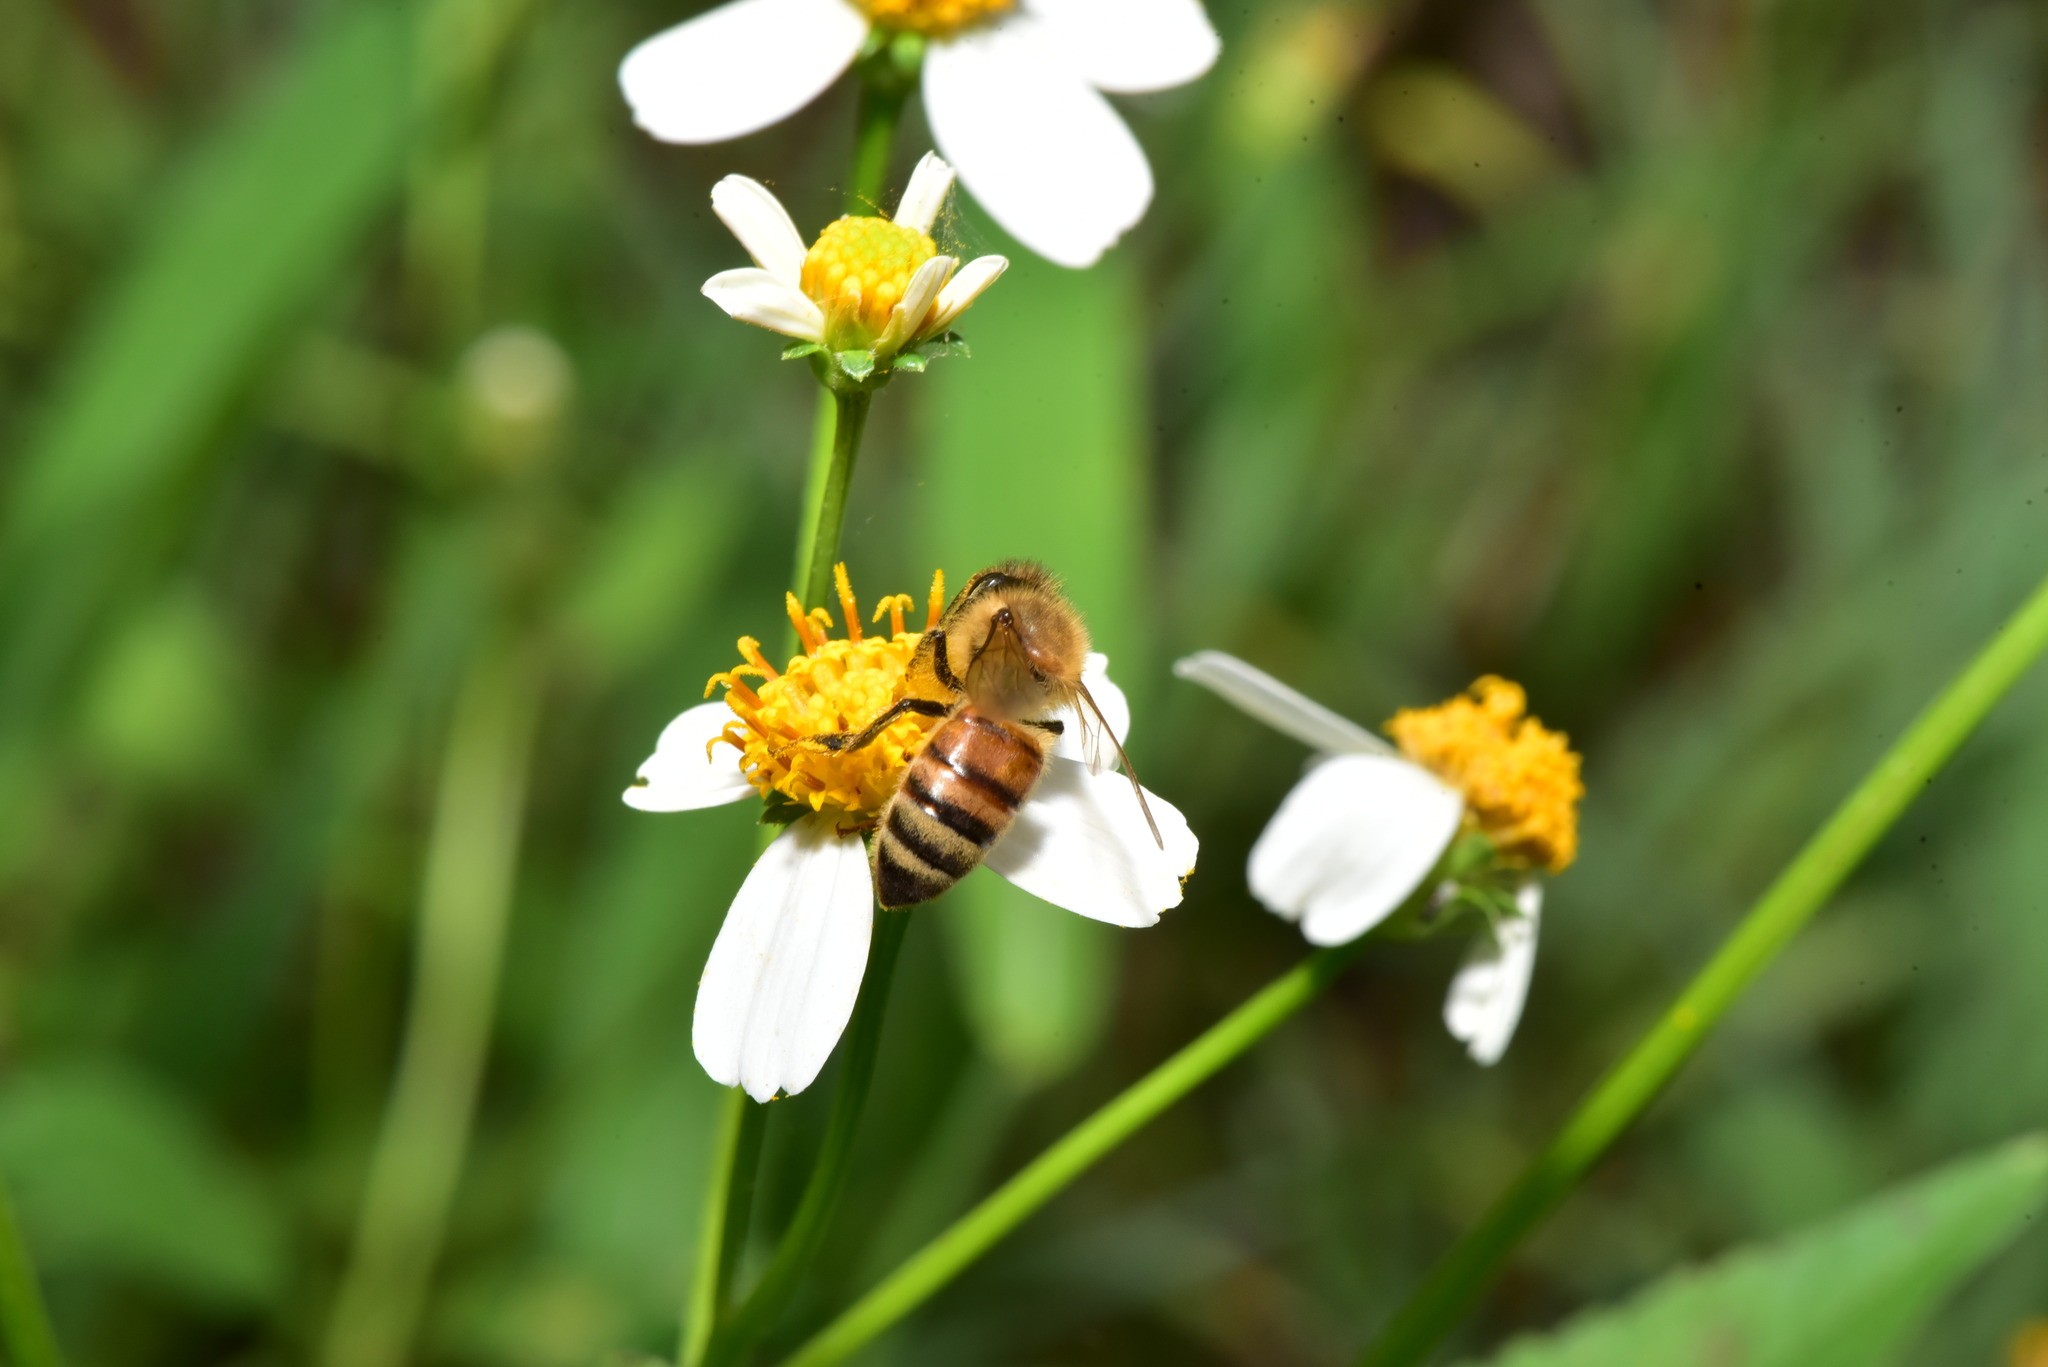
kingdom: Animalia
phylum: Arthropoda
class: Insecta
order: Hymenoptera
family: Apidae
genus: Apis
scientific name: Apis mellifera
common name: Honey bee
